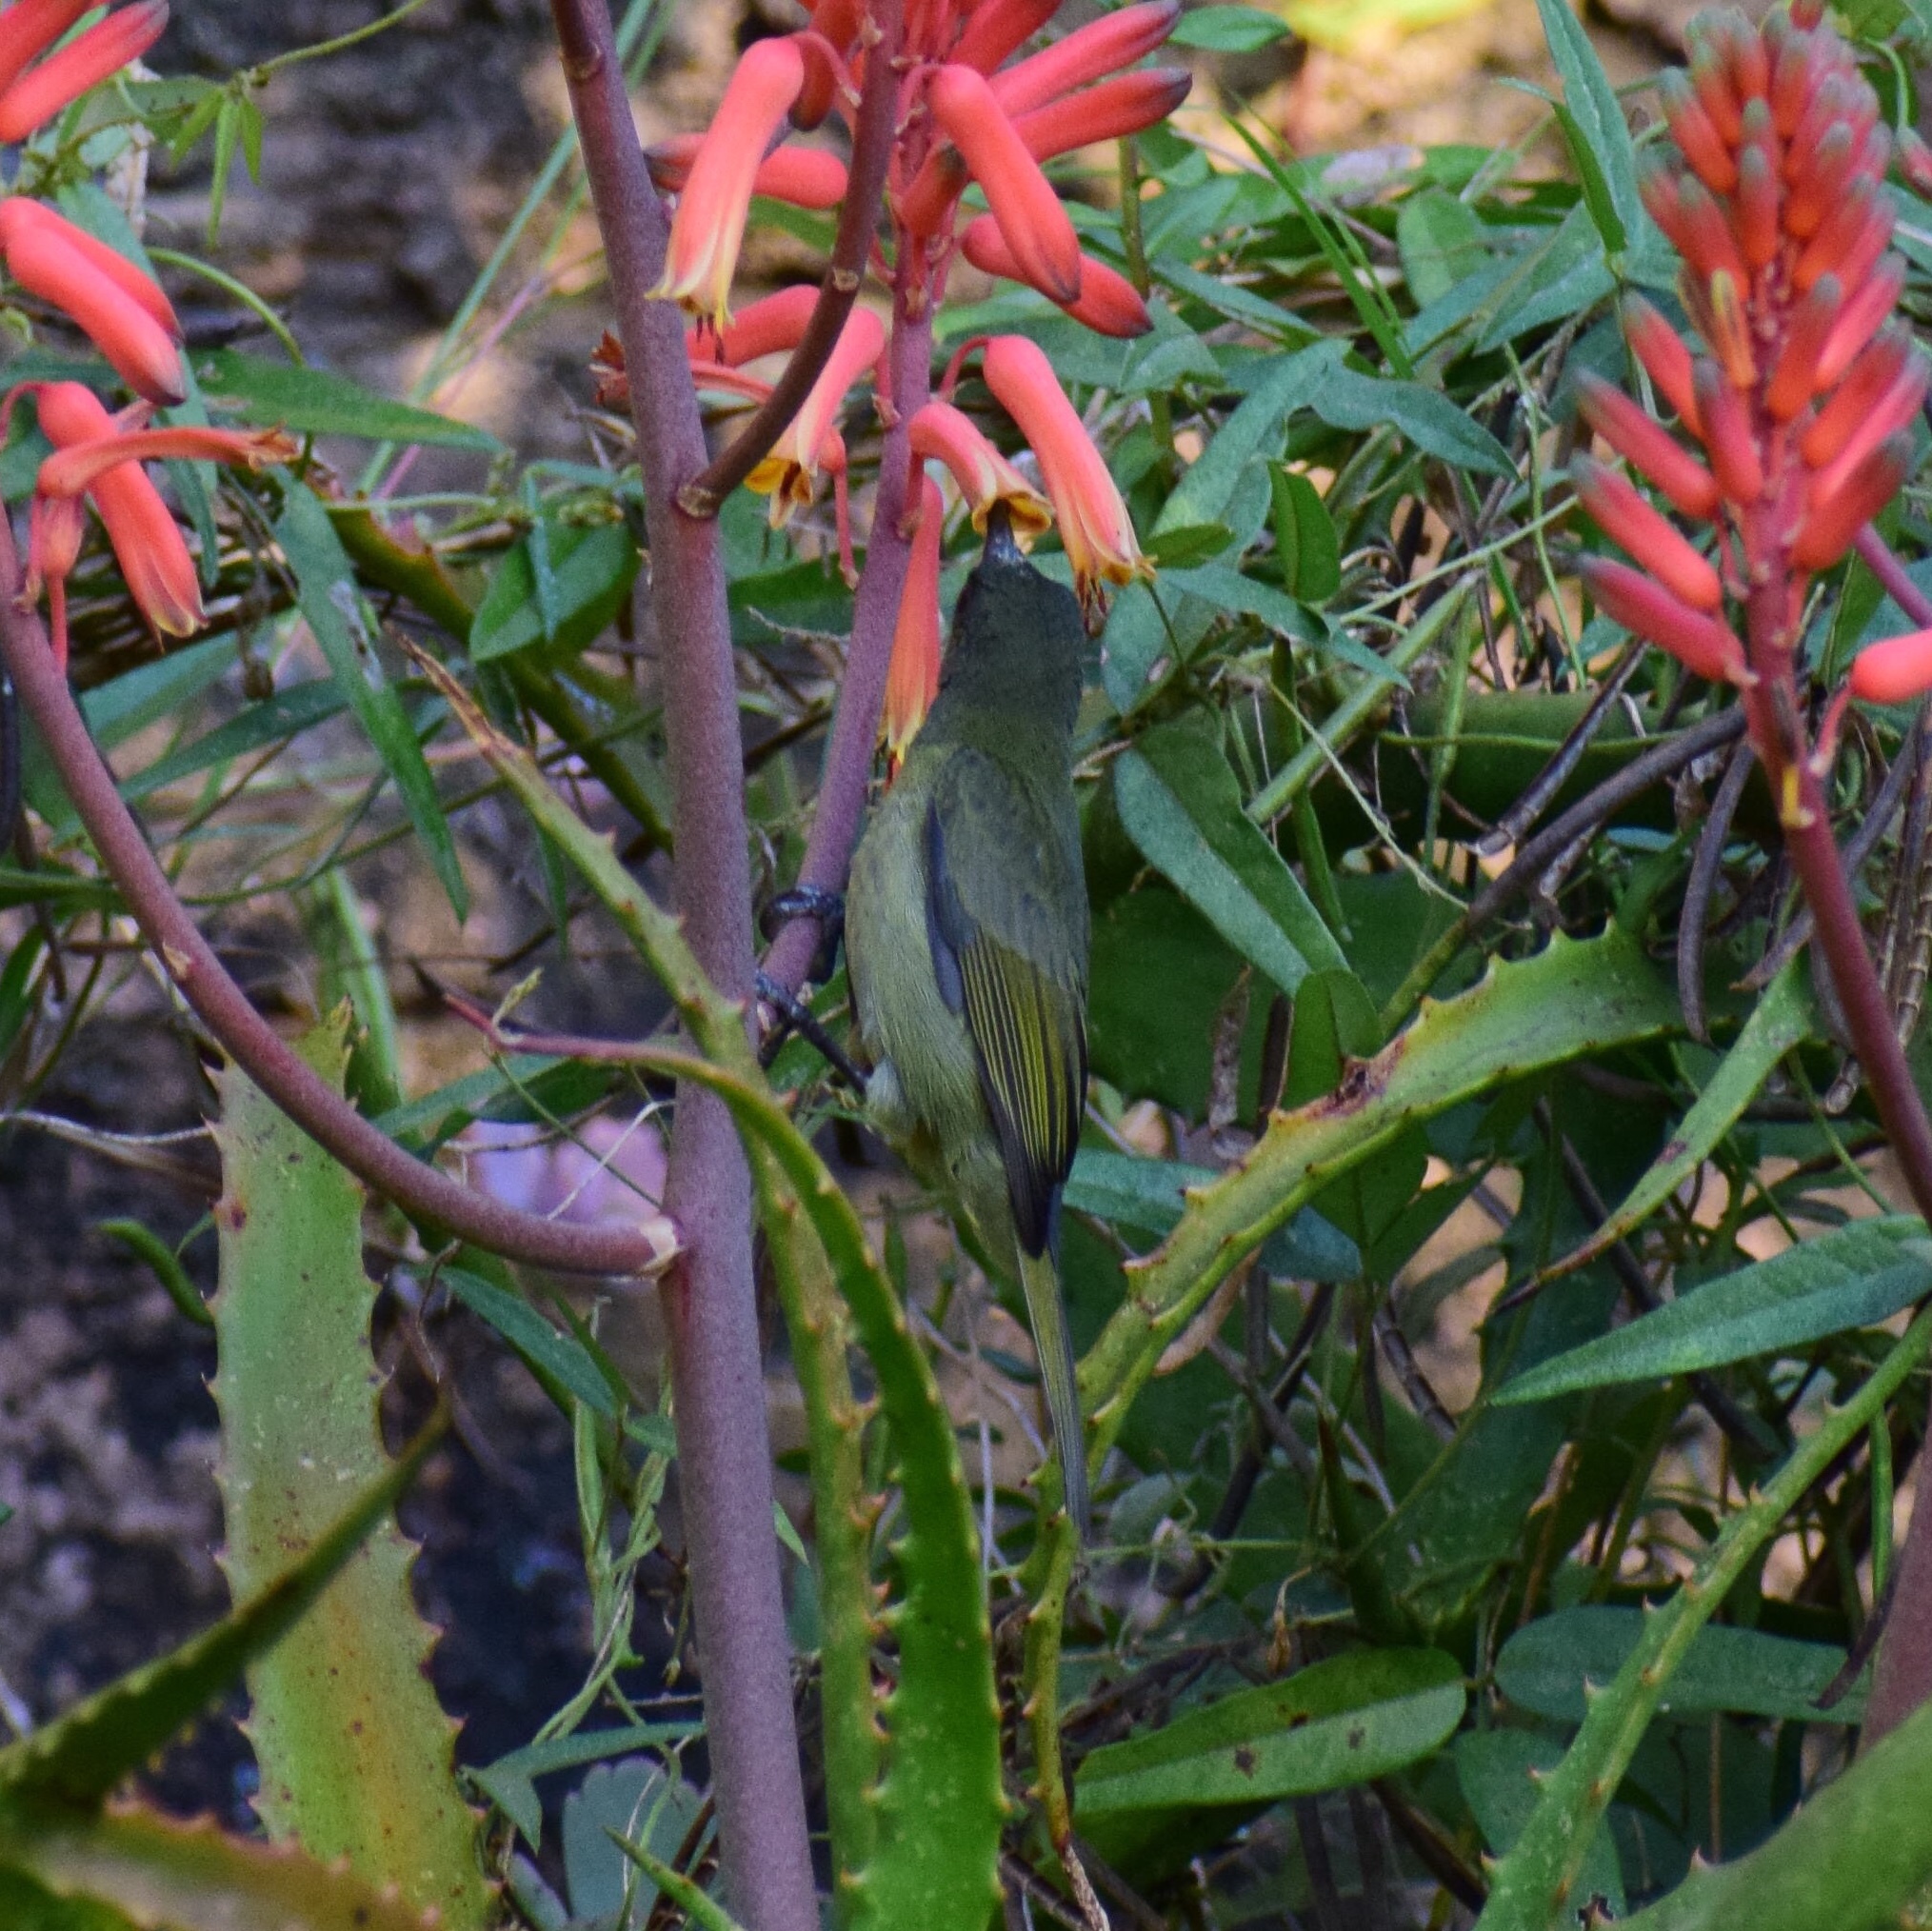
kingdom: Animalia
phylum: Chordata
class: Aves
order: Passeriformes
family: Nectariniidae
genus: Cyanomitra
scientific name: Cyanomitra olivacea
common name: Olive sunbird
